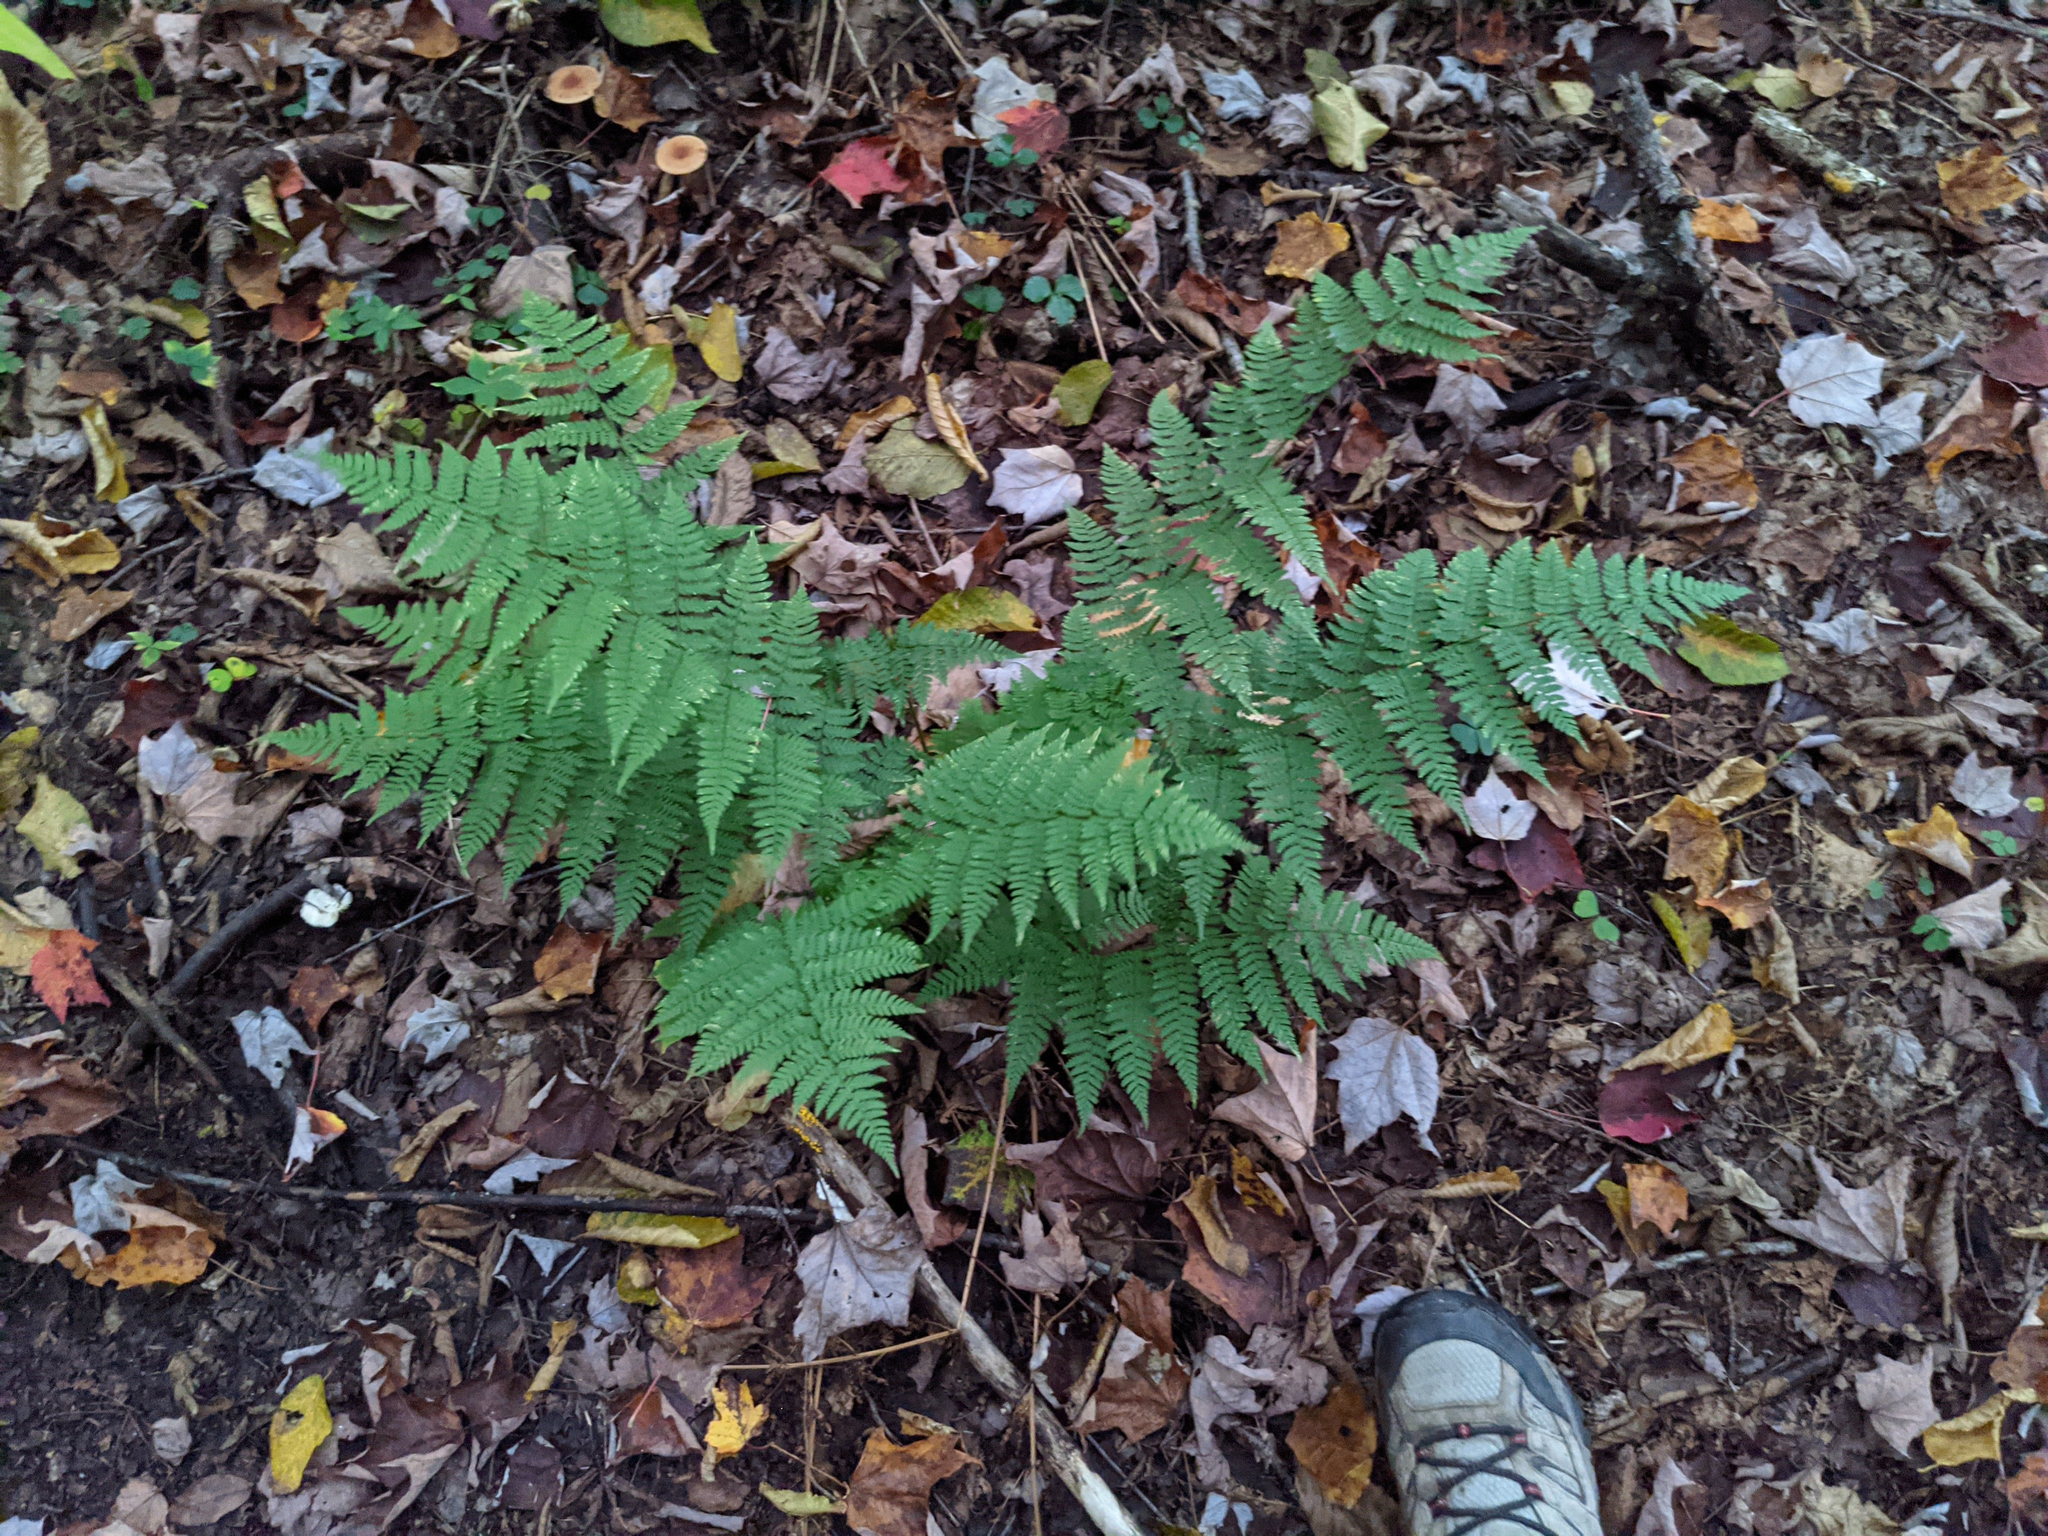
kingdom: Plantae
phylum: Tracheophyta
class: Polypodiopsida
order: Polypodiales
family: Dryopteridaceae
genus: Dryopteris
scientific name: Dryopteris intermedia
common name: Evergreen wood fern
